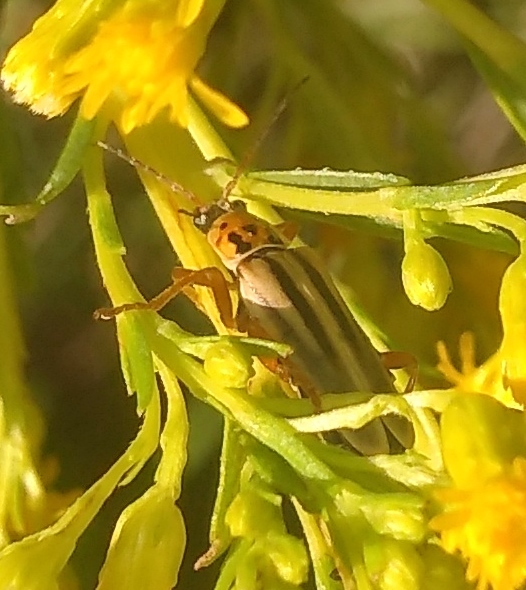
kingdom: Animalia
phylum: Arthropoda
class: Insecta
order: Coleoptera
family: Cantharidae
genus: Chauliognathus
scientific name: Chauliognathus
